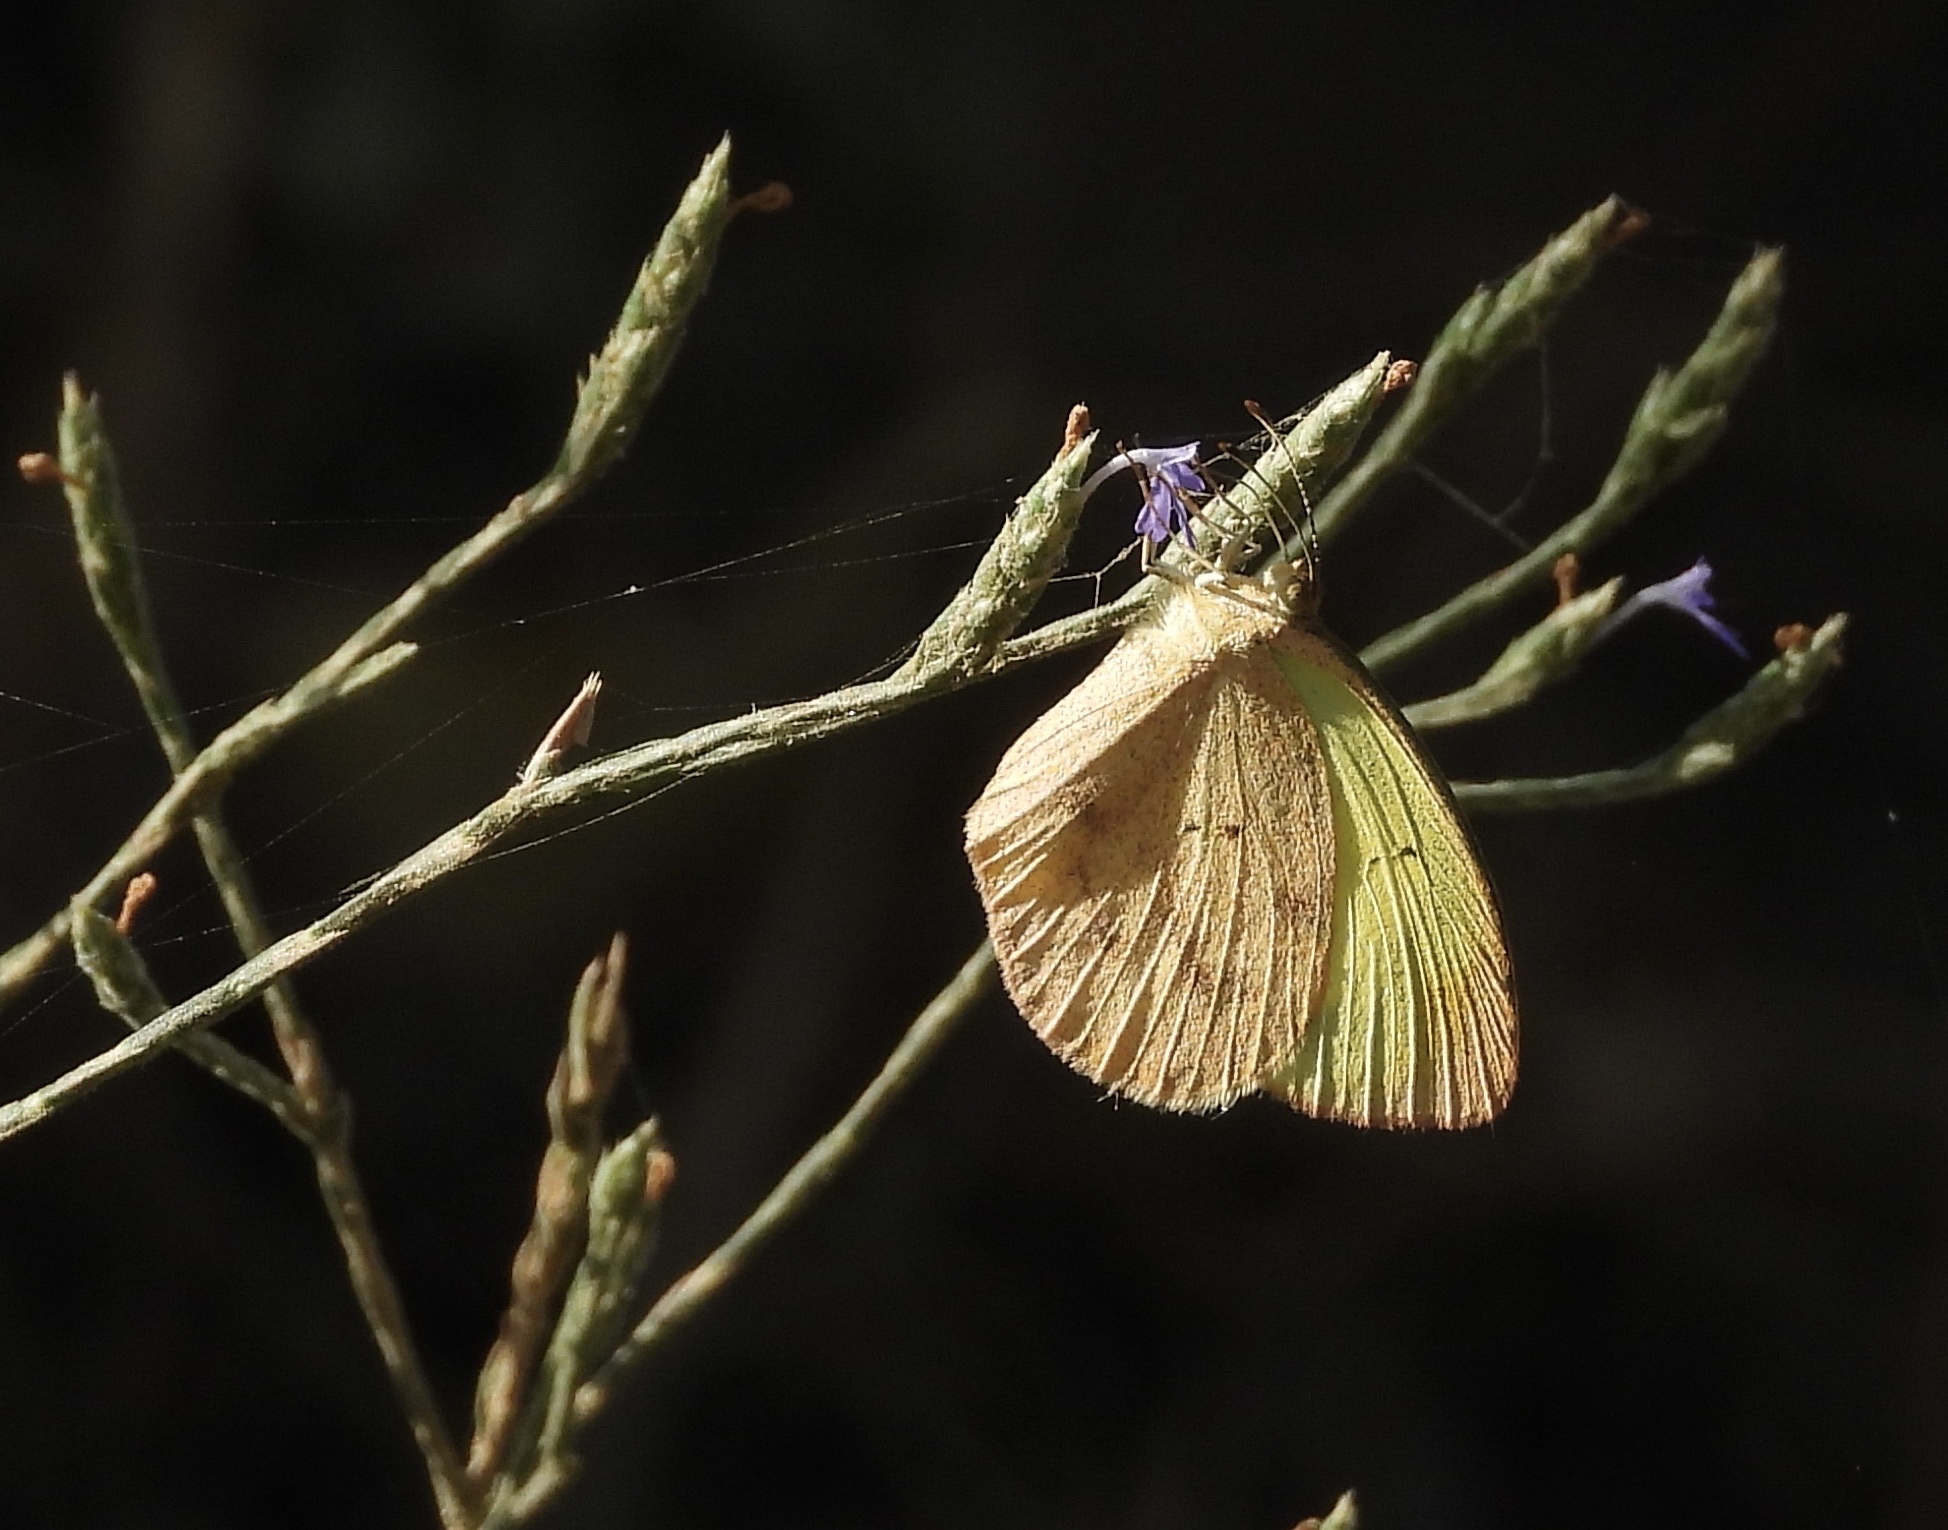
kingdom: Animalia
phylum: Arthropoda
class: Insecta
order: Lepidoptera
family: Pieridae
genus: Eurema
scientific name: Eurema daira
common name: Barred sulphur
